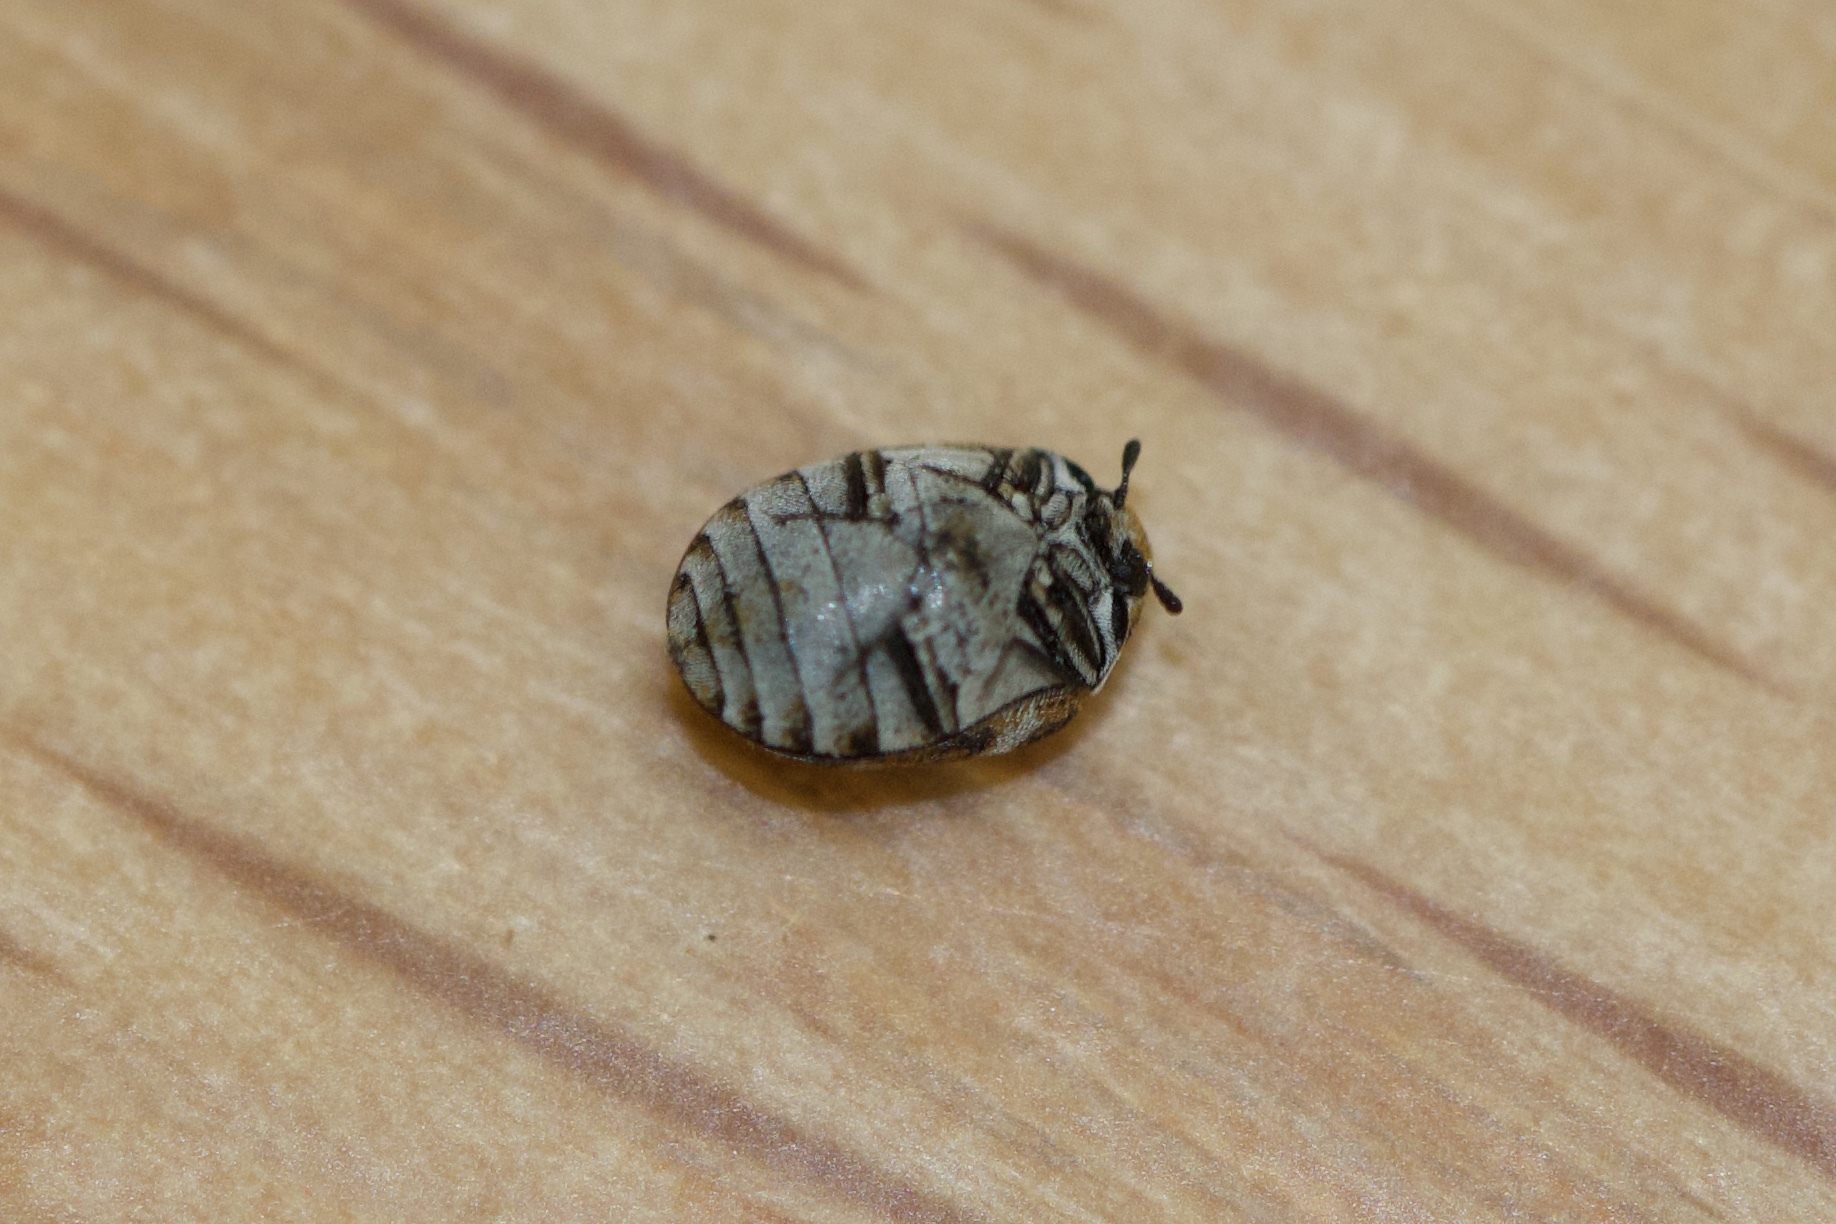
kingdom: Animalia
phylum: Arthropoda
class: Insecta
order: Coleoptera
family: Dermestidae
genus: Anthrenus
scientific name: Anthrenus verbasci
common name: Varied carpet beetle
